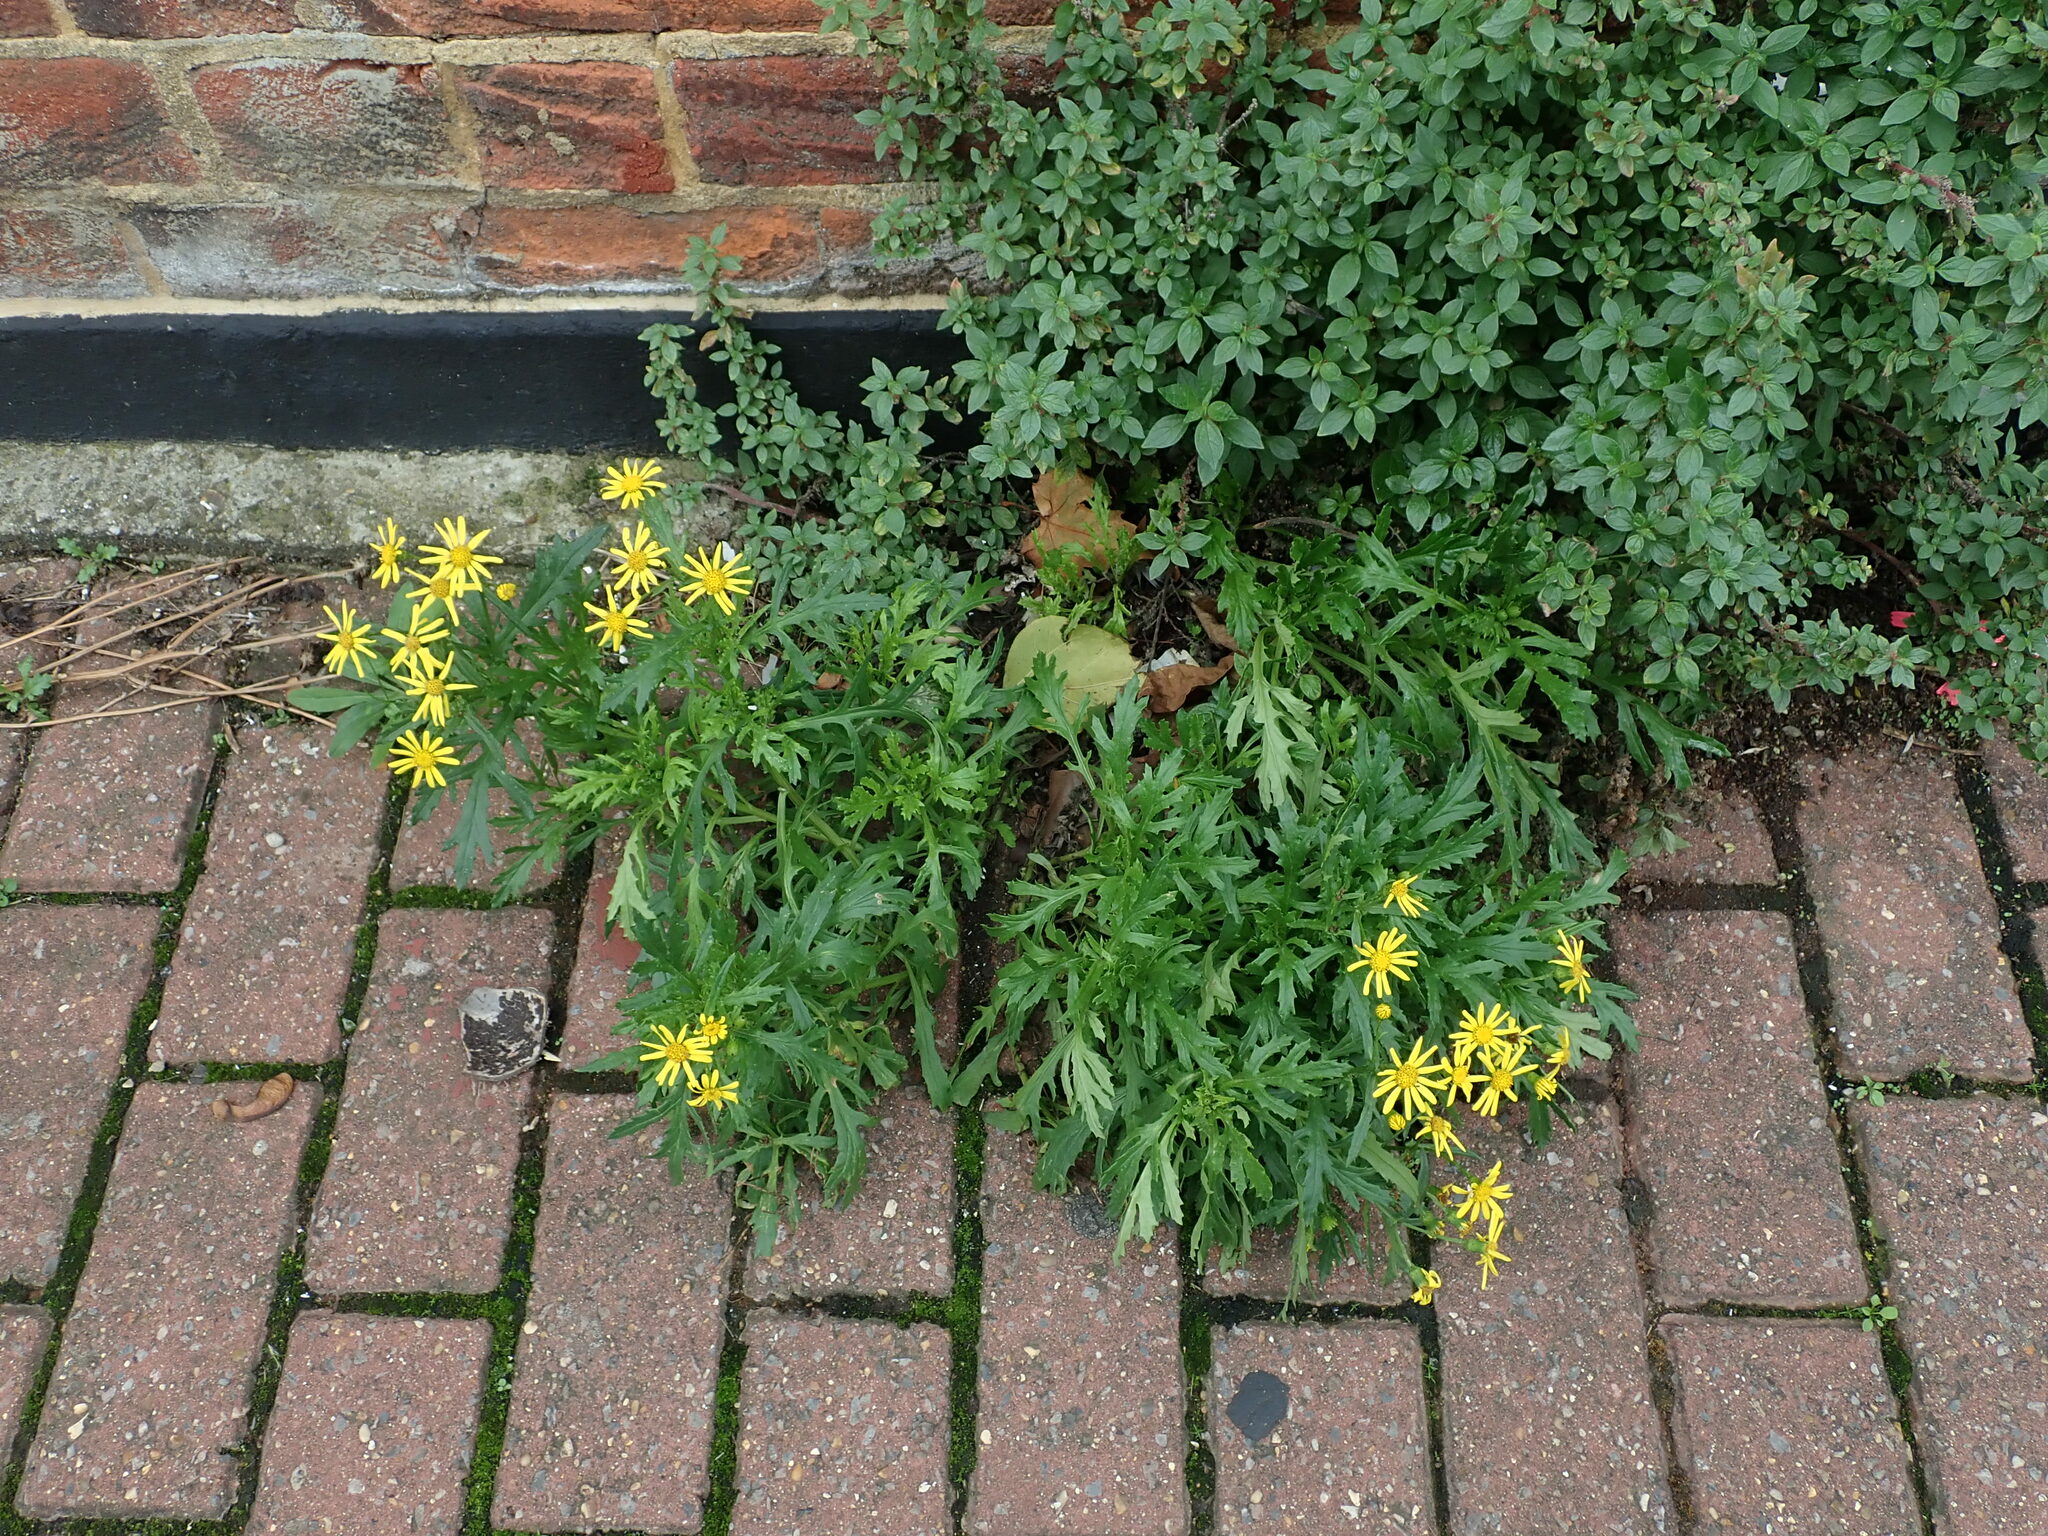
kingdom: Plantae
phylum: Tracheophyta
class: Magnoliopsida
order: Asterales
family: Asteraceae
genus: Senecio
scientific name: Senecio squalidus
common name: Oxford ragwort
